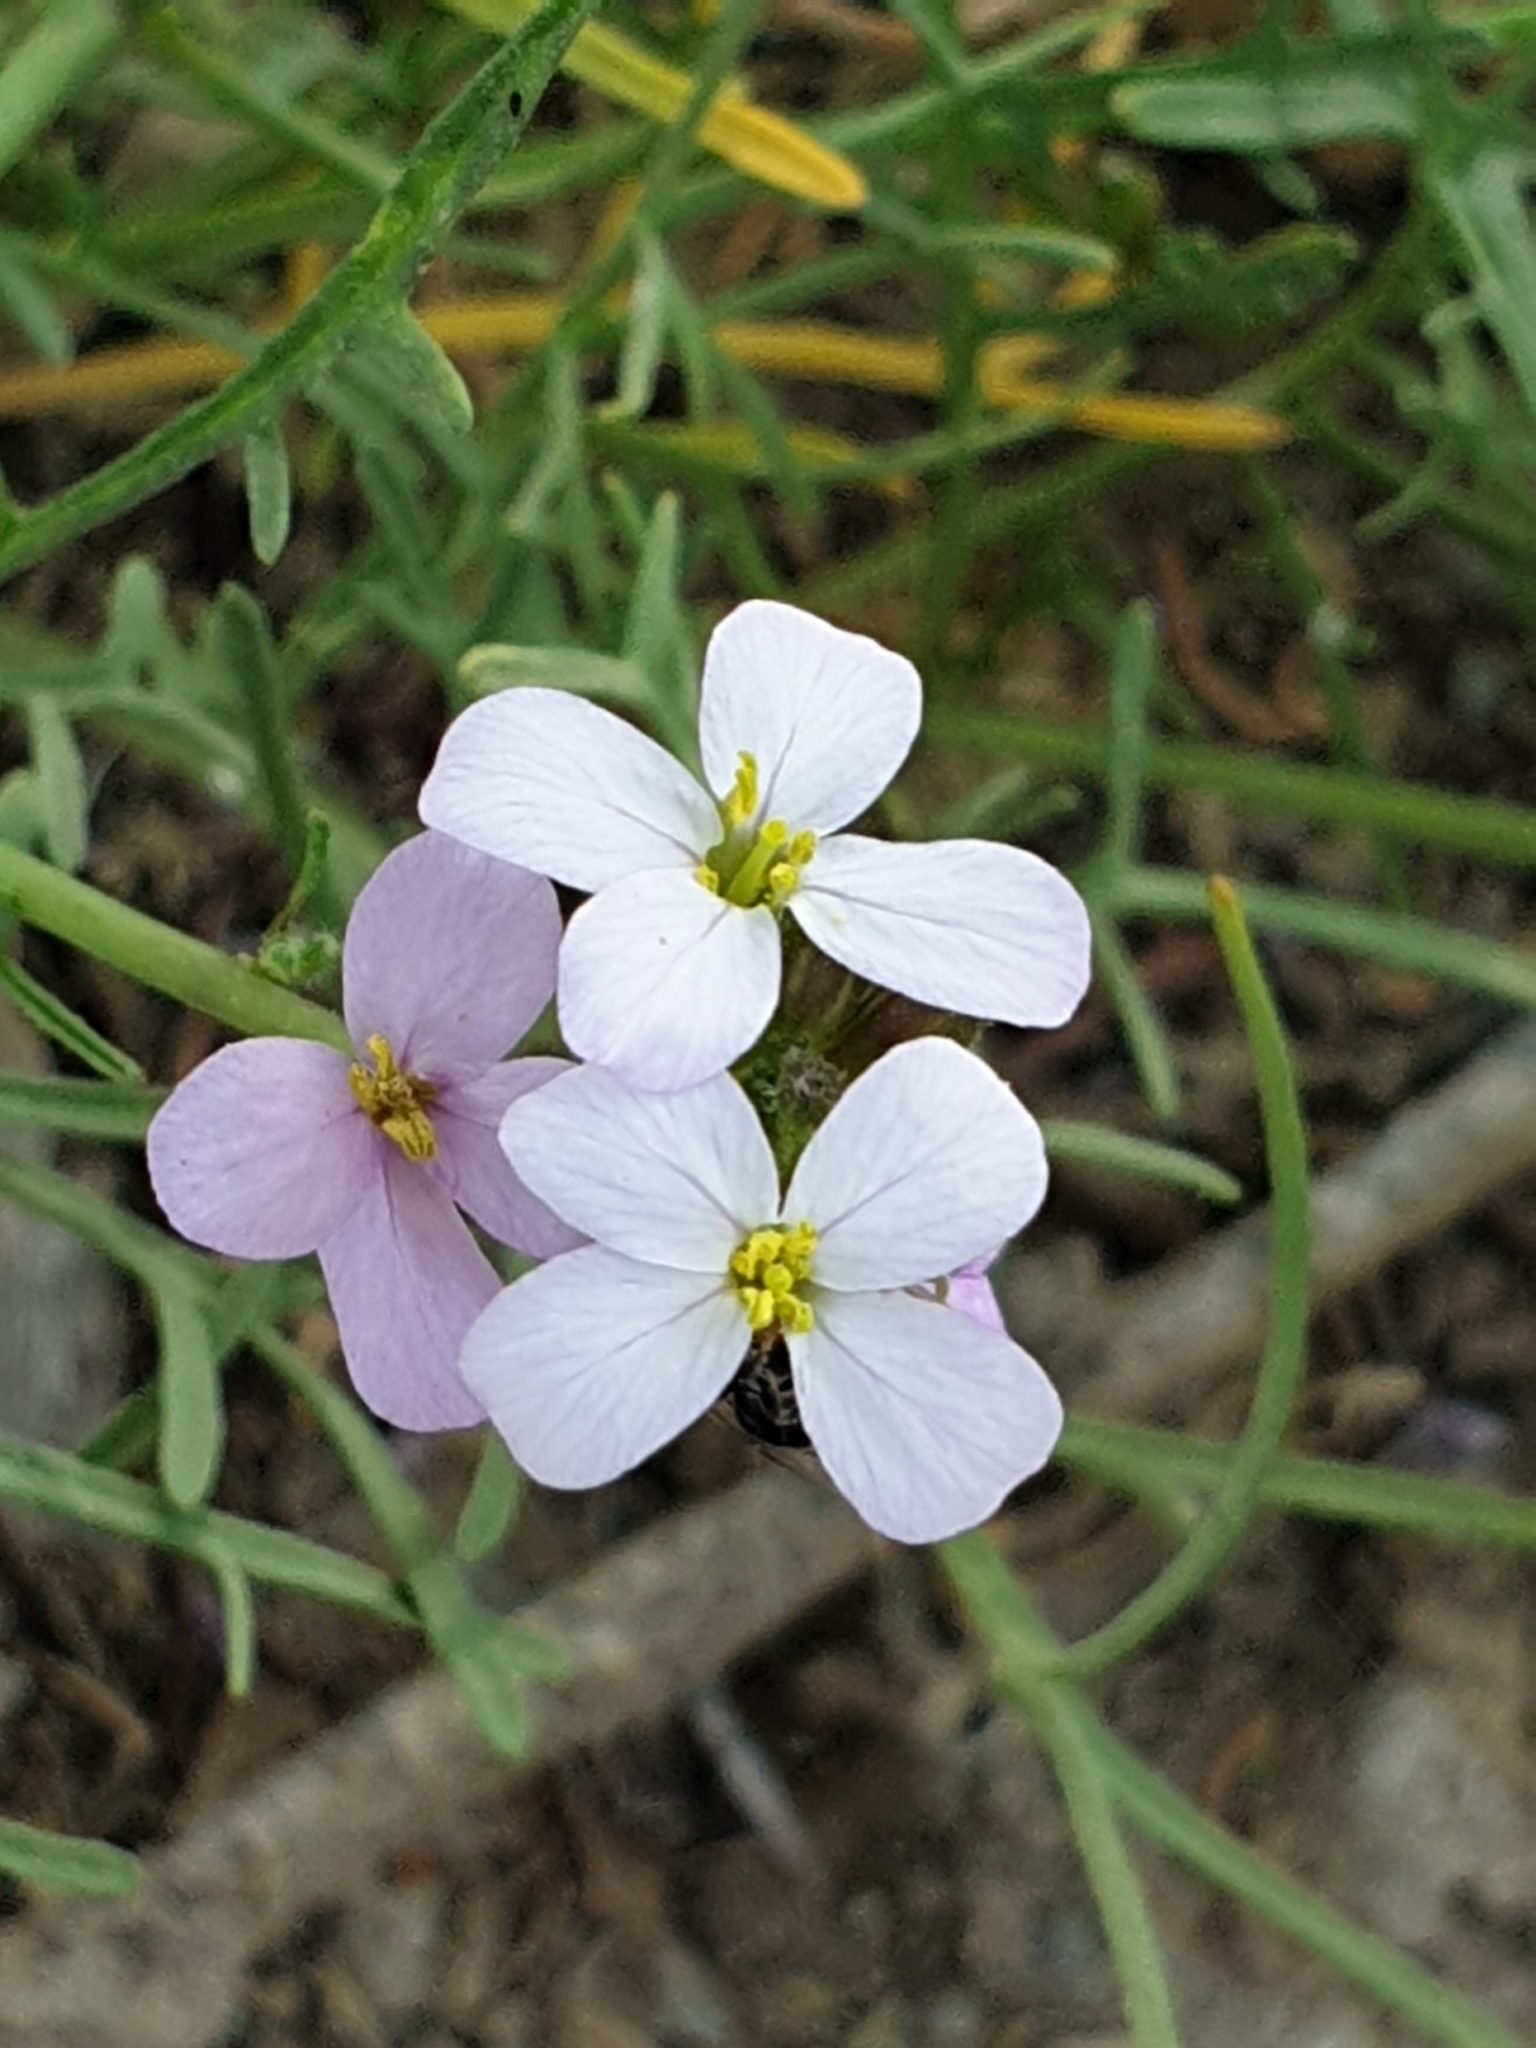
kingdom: Plantae
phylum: Tracheophyta
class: Magnoliopsida
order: Brassicales
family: Brassicaceae
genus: Erucaria
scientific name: Erucaria hispanica
